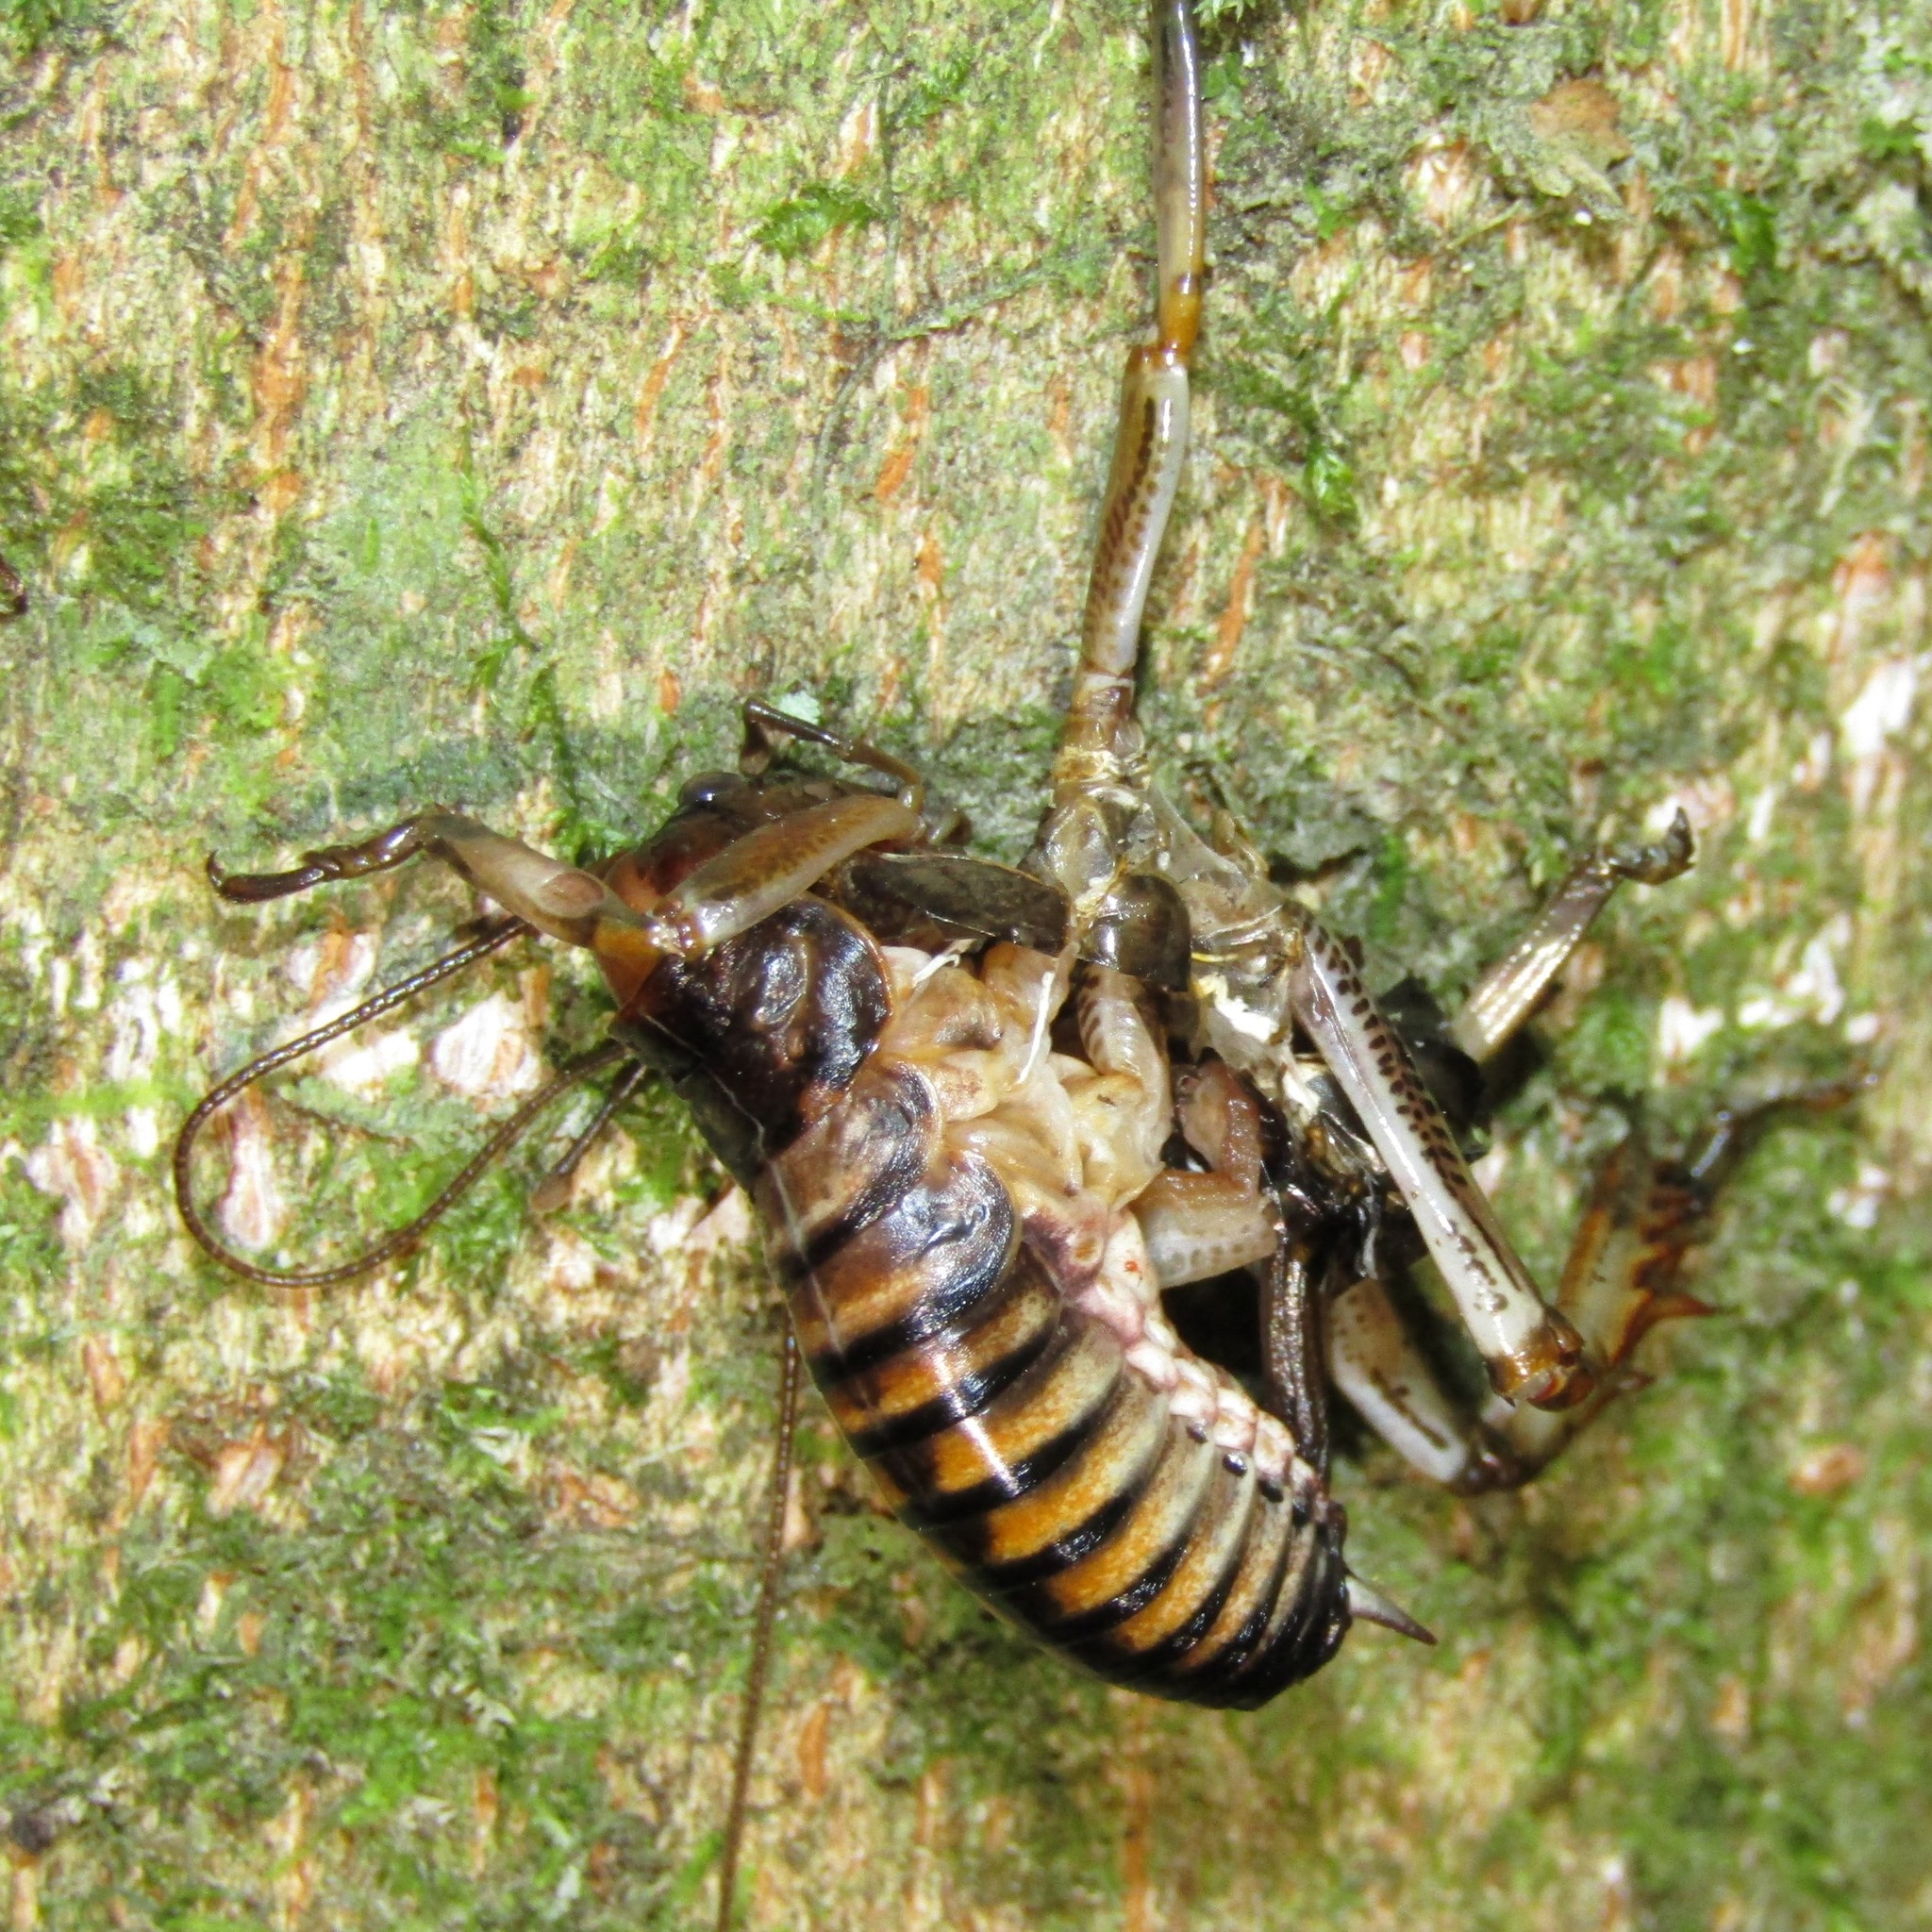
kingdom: Animalia
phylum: Arthropoda
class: Insecta
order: Orthoptera
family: Anostostomatidae
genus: Hemideina
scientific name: Hemideina crassidens
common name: Wellington tree weta
